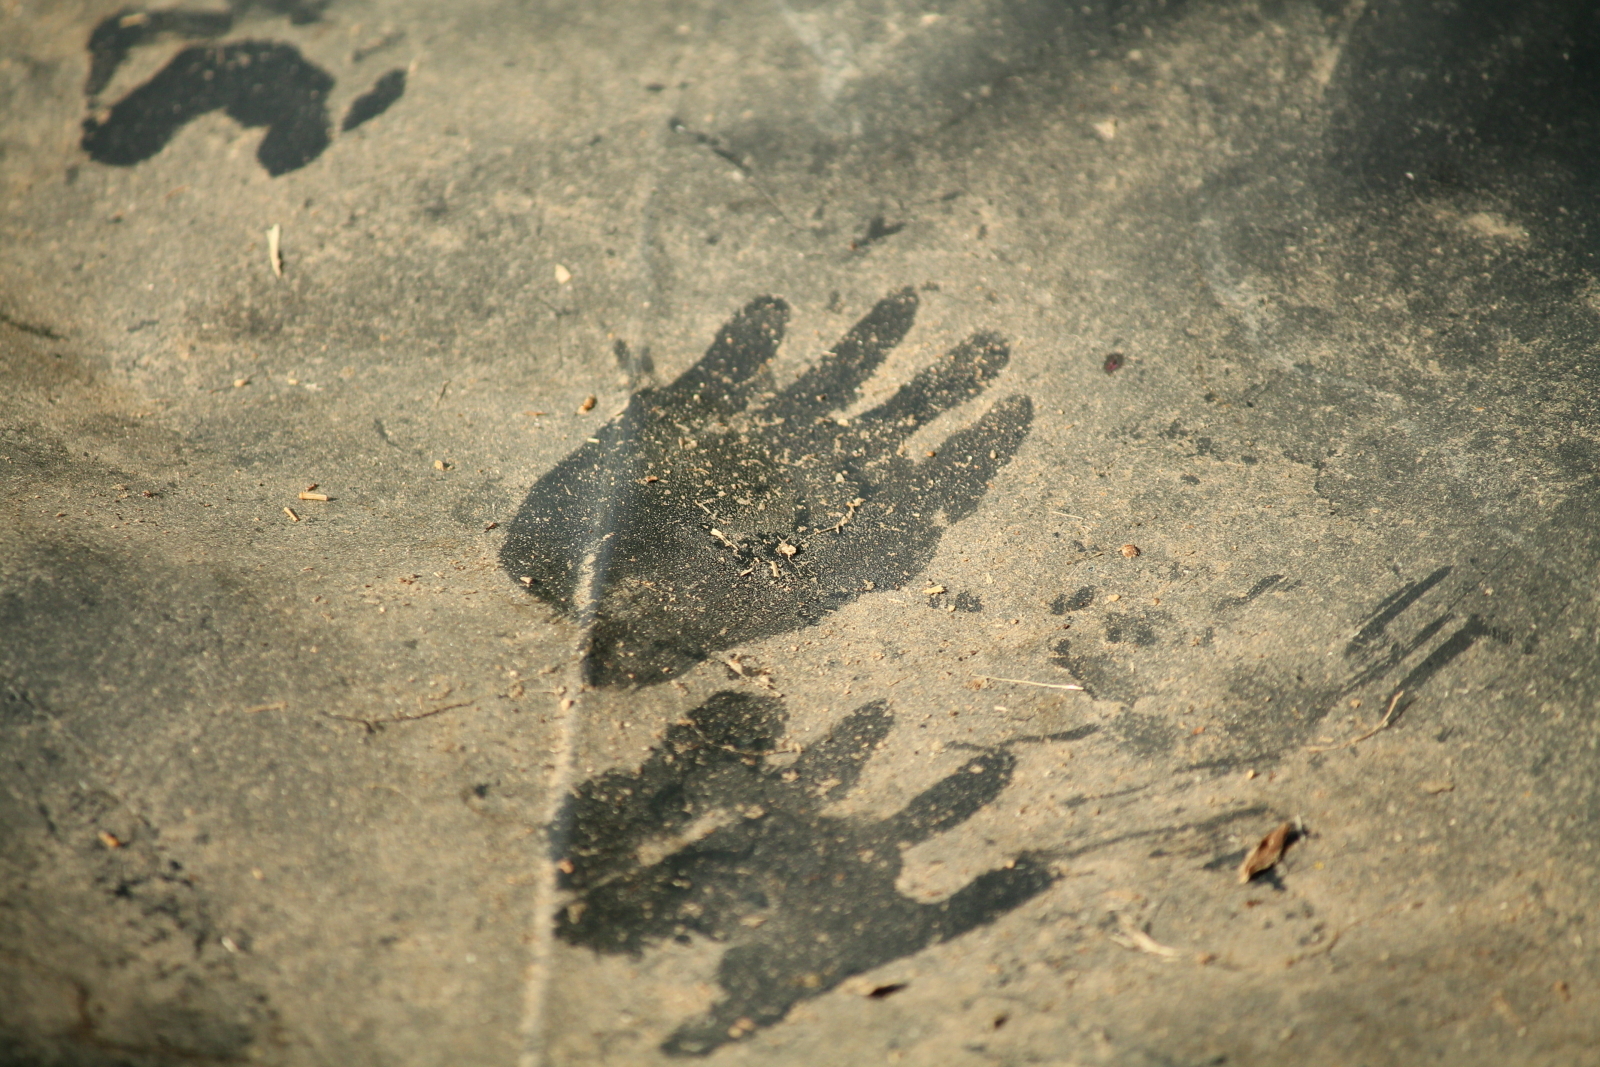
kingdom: Animalia
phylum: Chordata
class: Mammalia
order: Carnivora
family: Procyonidae
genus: Procyon
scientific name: Procyon lotor
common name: Raccoon
